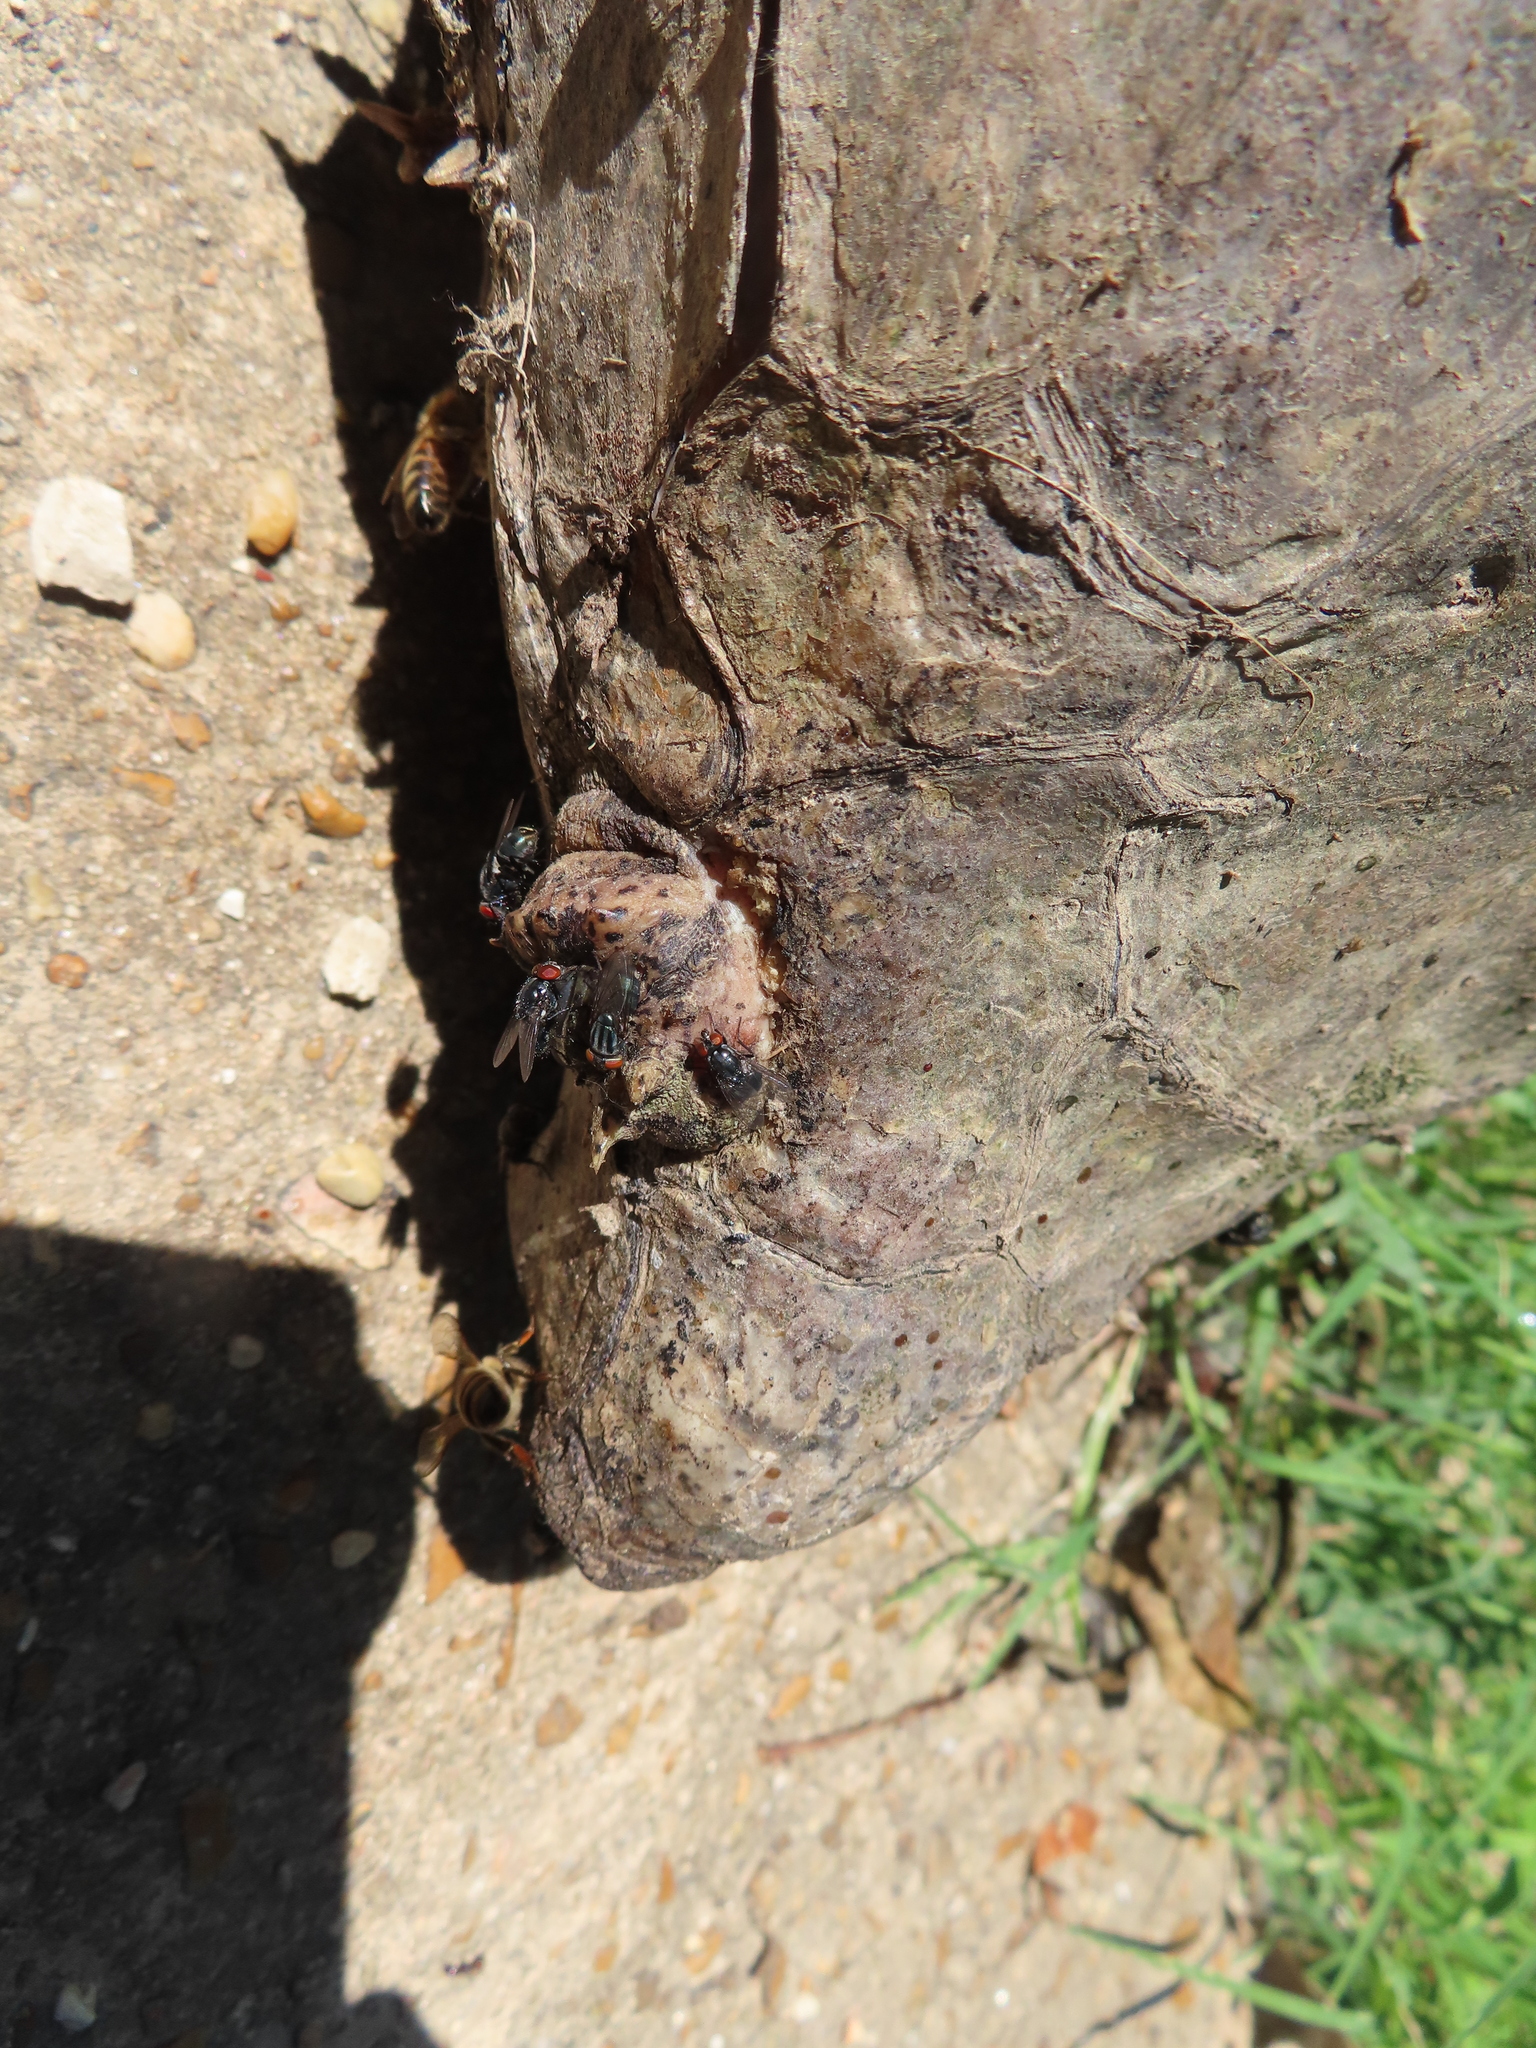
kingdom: Animalia
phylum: Chordata
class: Testudines
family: Chelydridae
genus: Macrochelys
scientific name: Macrochelys temminckii
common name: Alligator snapping turtle
